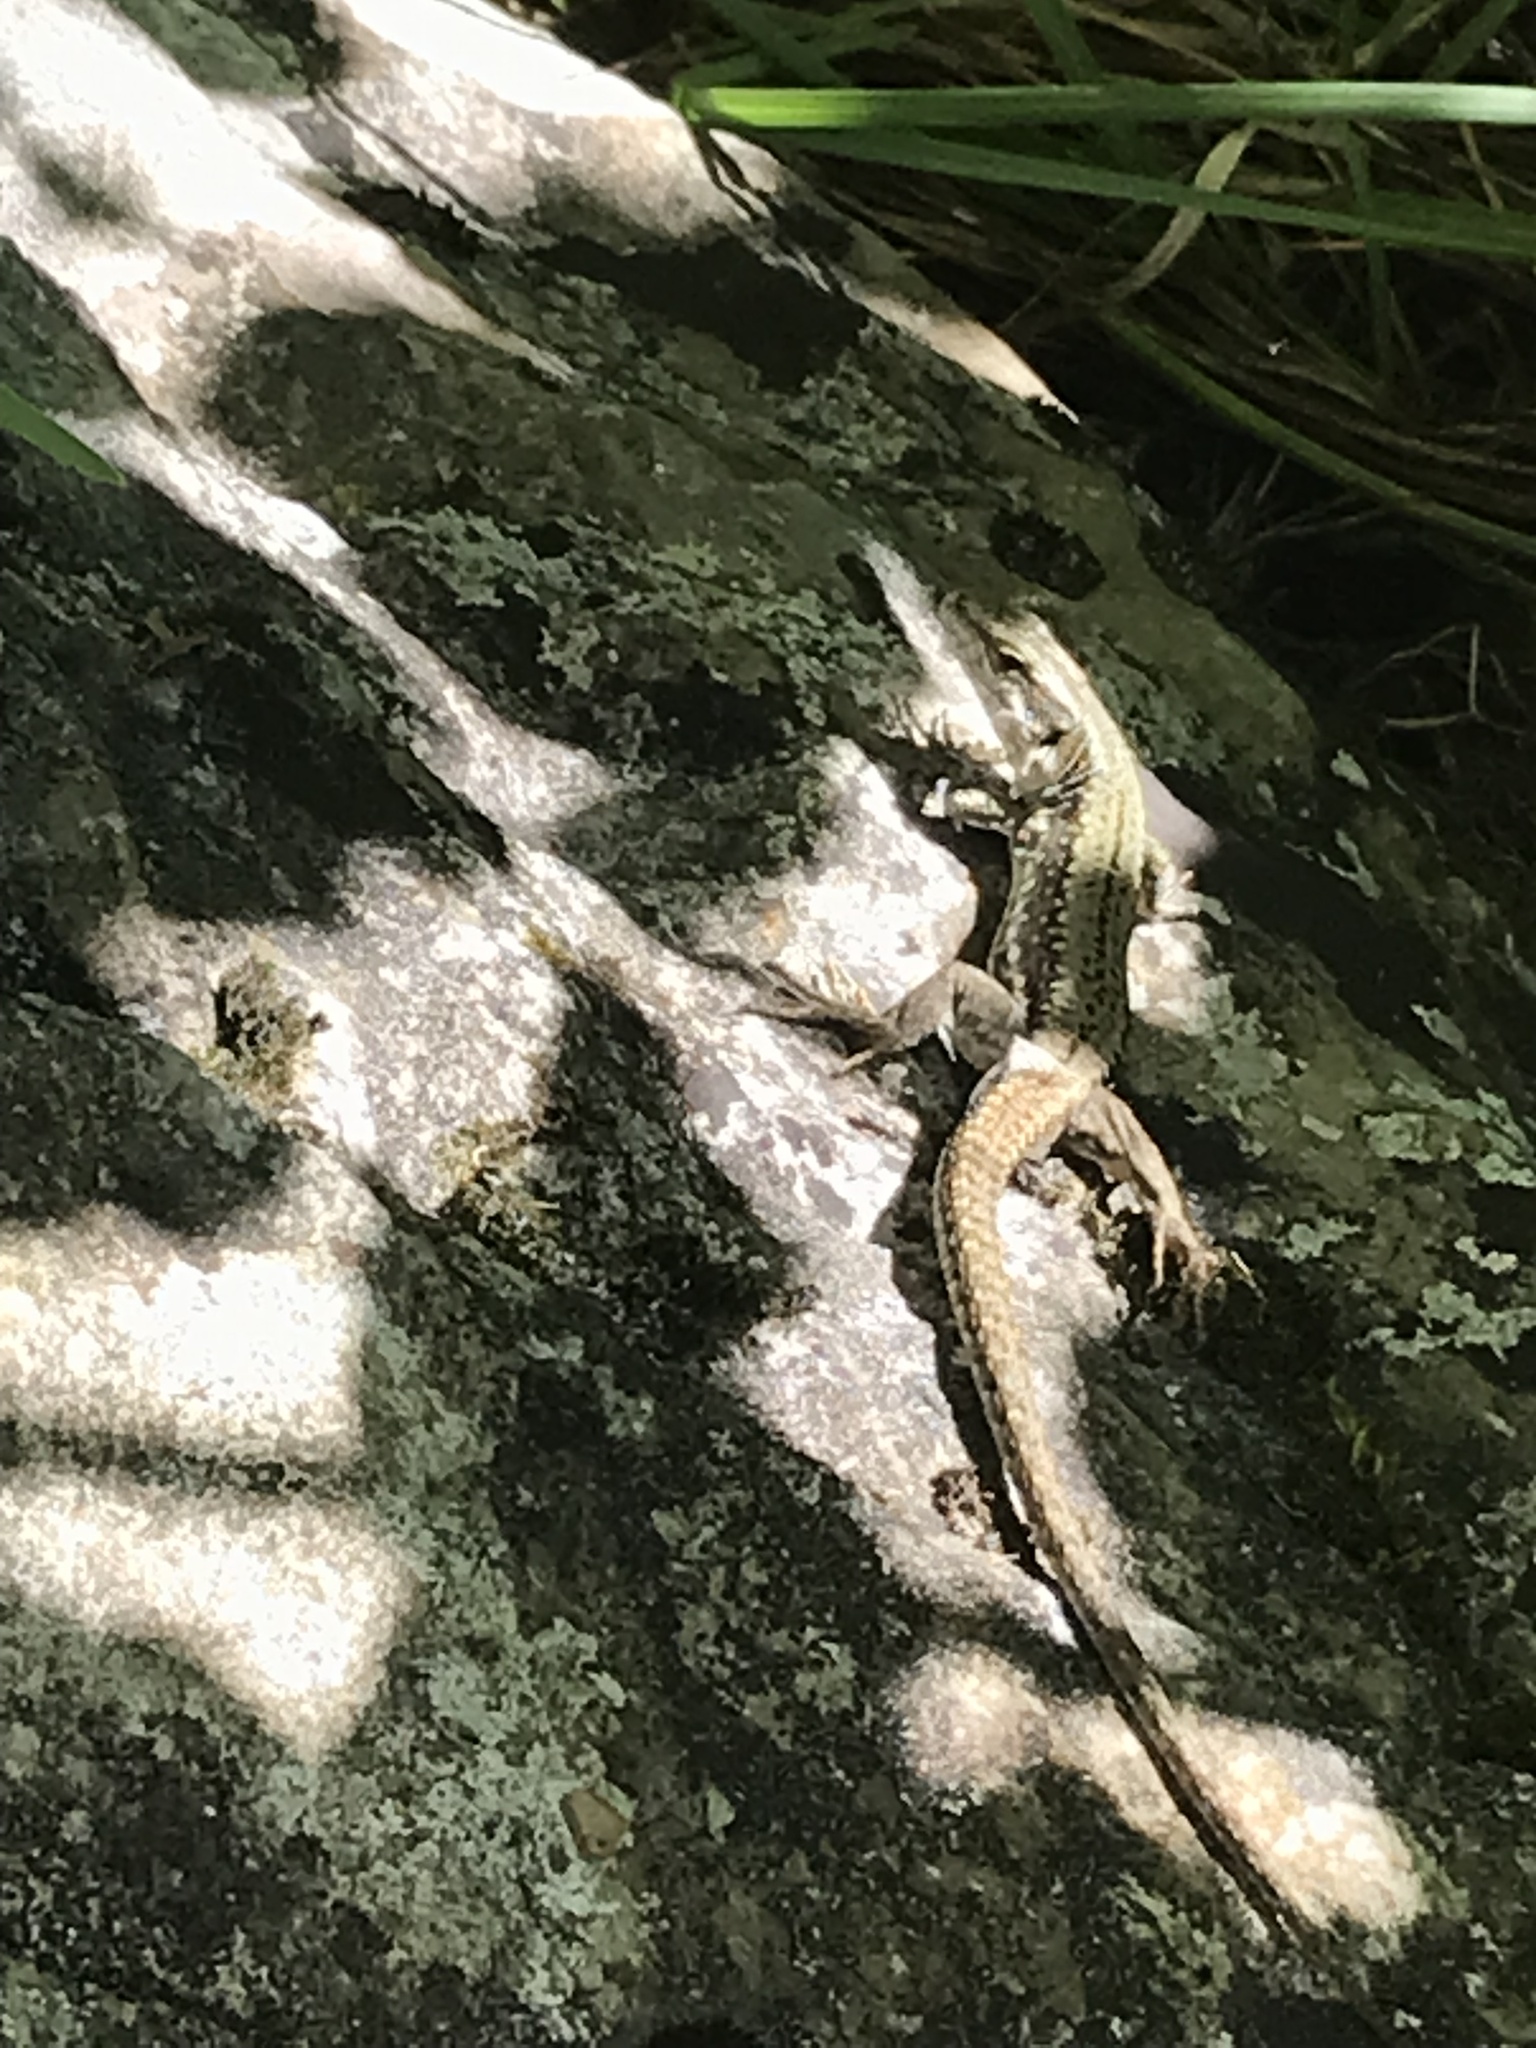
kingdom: Animalia
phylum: Chordata
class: Squamata
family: Lacertidae
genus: Podarcis
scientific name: Podarcis muralis
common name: Common wall lizard
